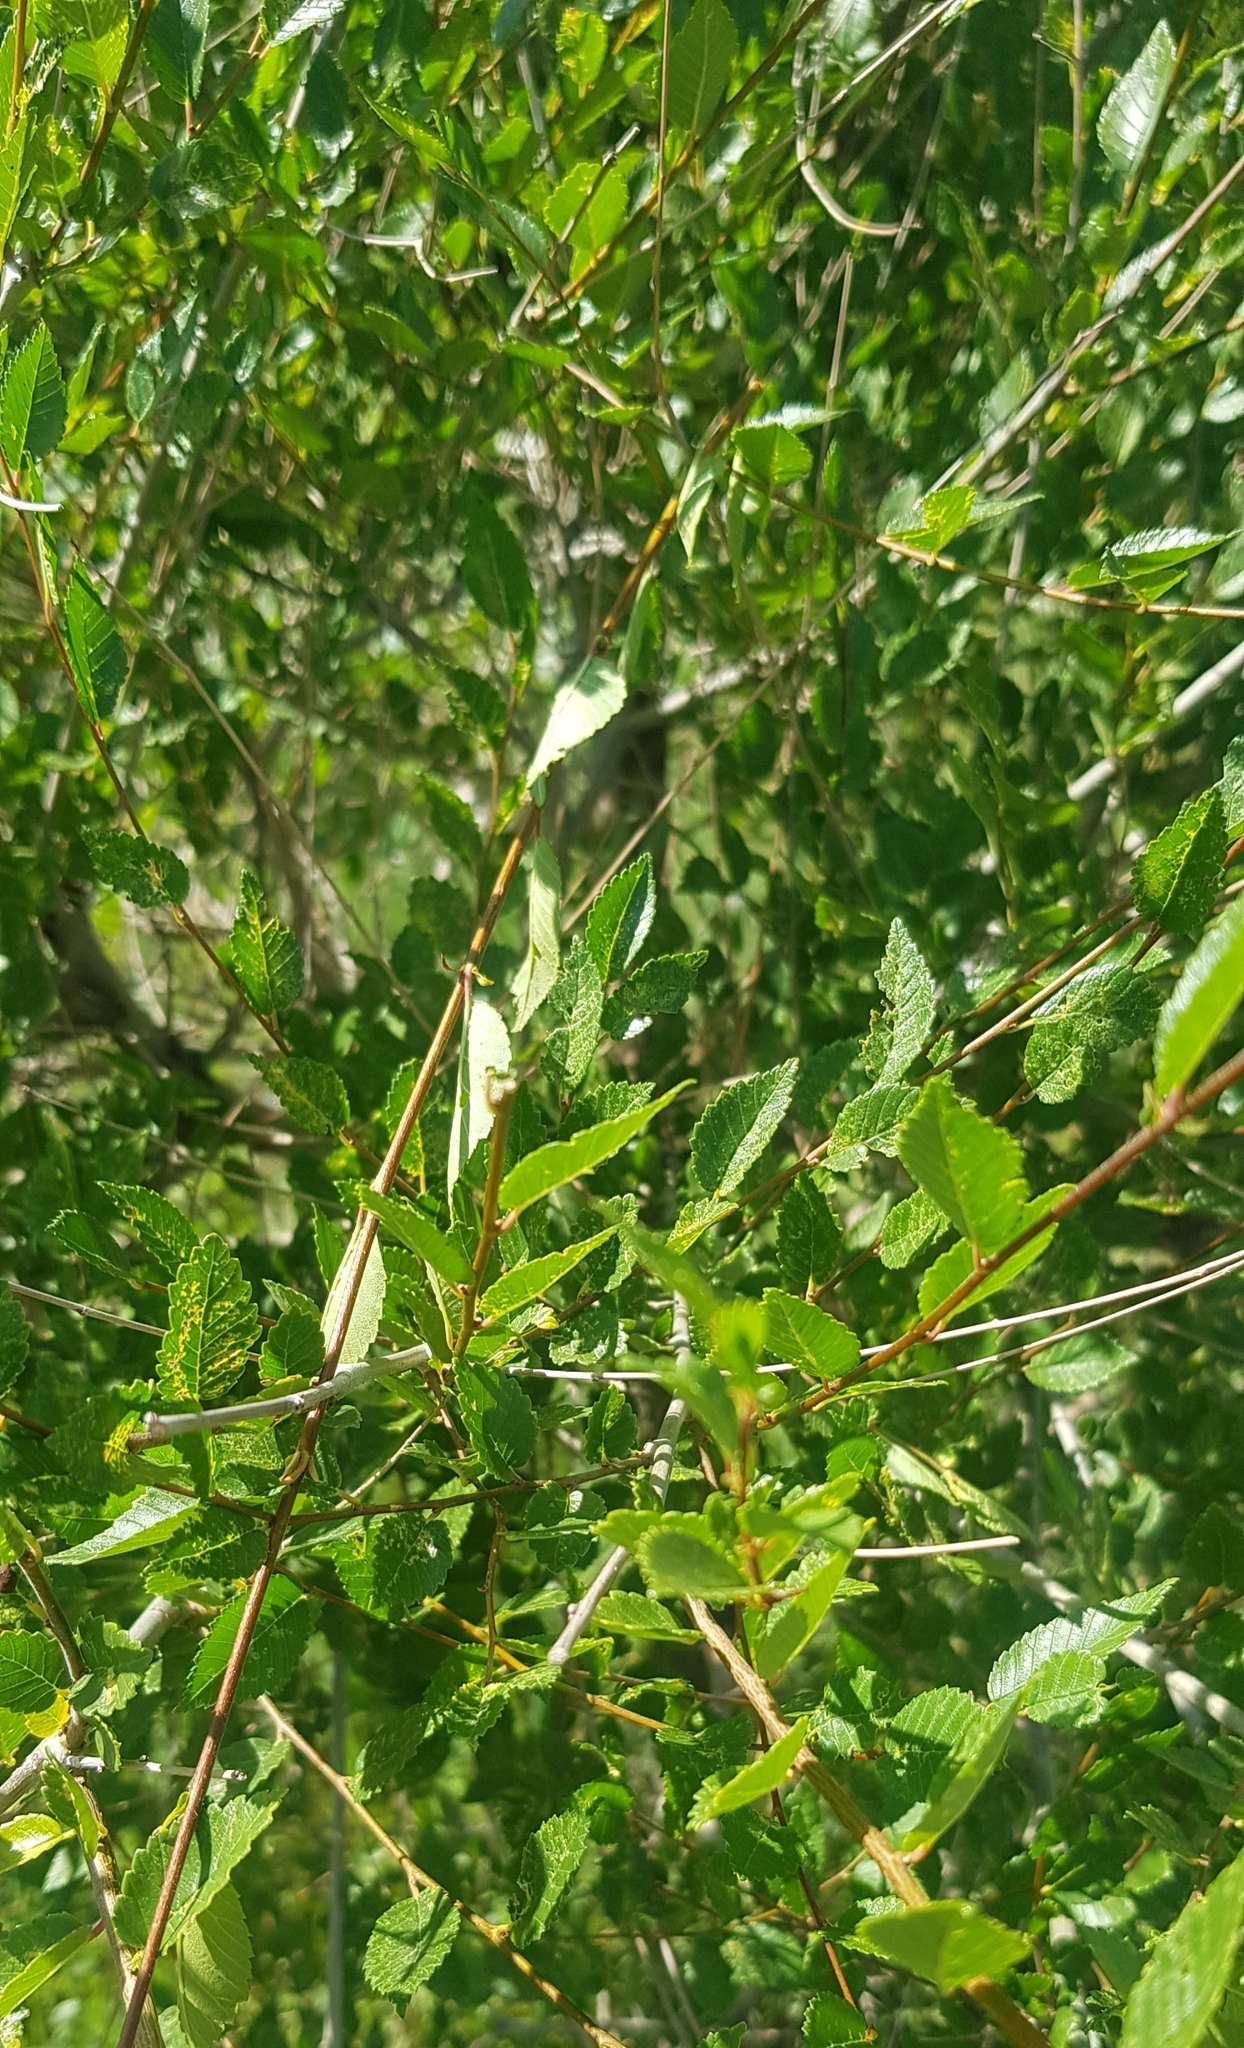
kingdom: Plantae
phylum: Tracheophyta
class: Magnoliopsida
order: Rosales
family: Ulmaceae
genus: Ulmus
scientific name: Ulmus pumila
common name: Siberian elm
